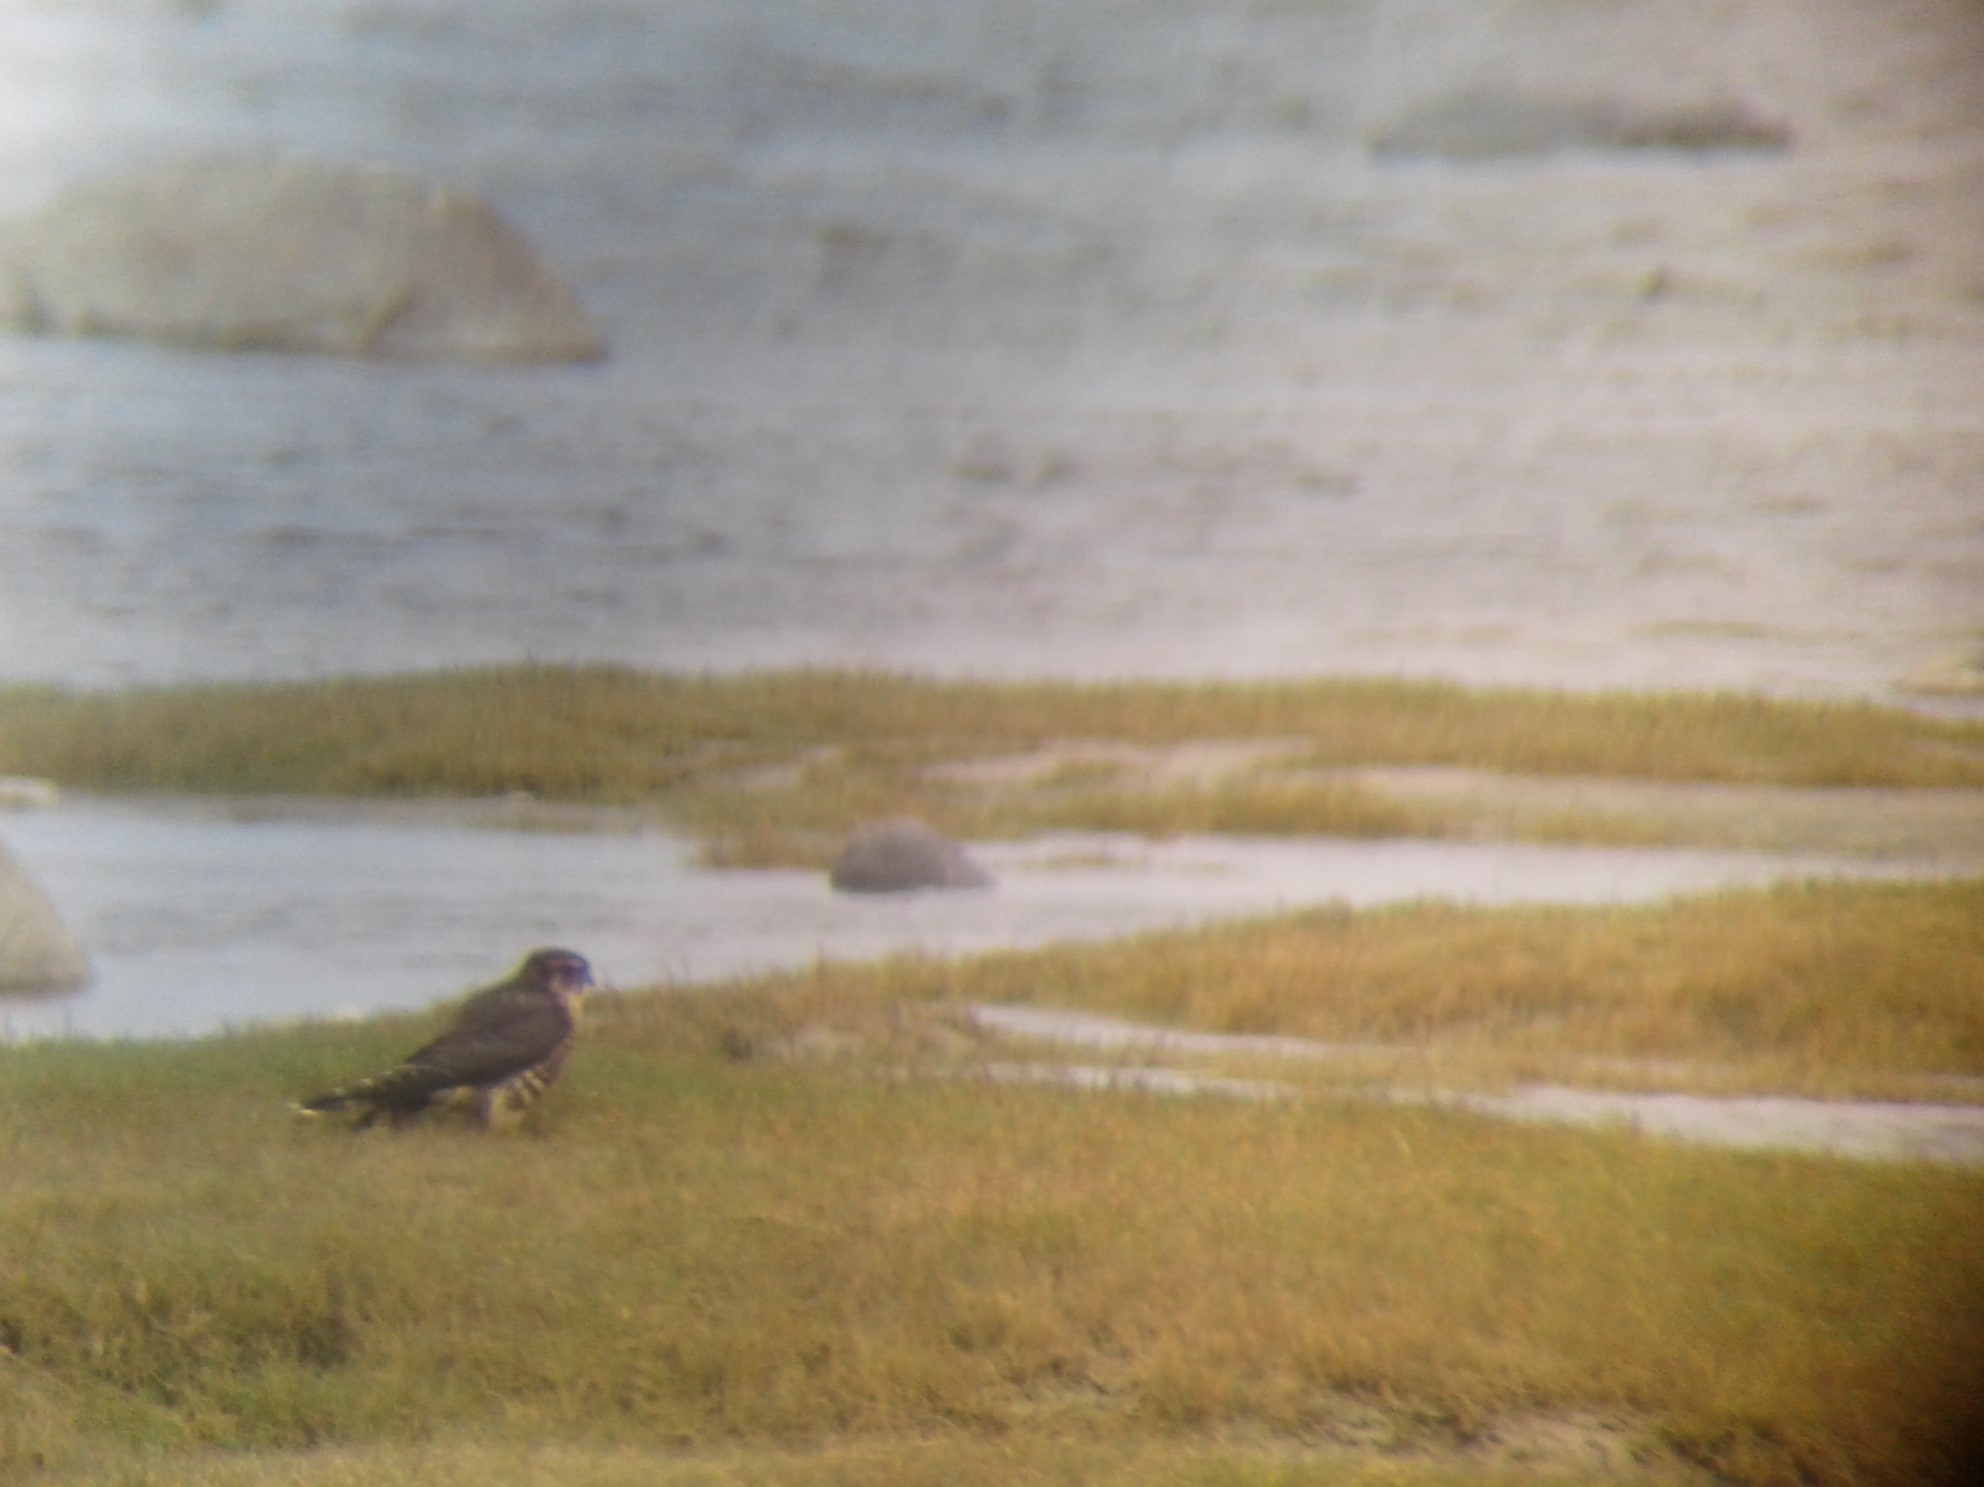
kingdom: Animalia
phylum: Chordata
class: Aves
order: Falconiformes
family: Falconidae
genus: Falco
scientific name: Falco columbarius
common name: Merlin
